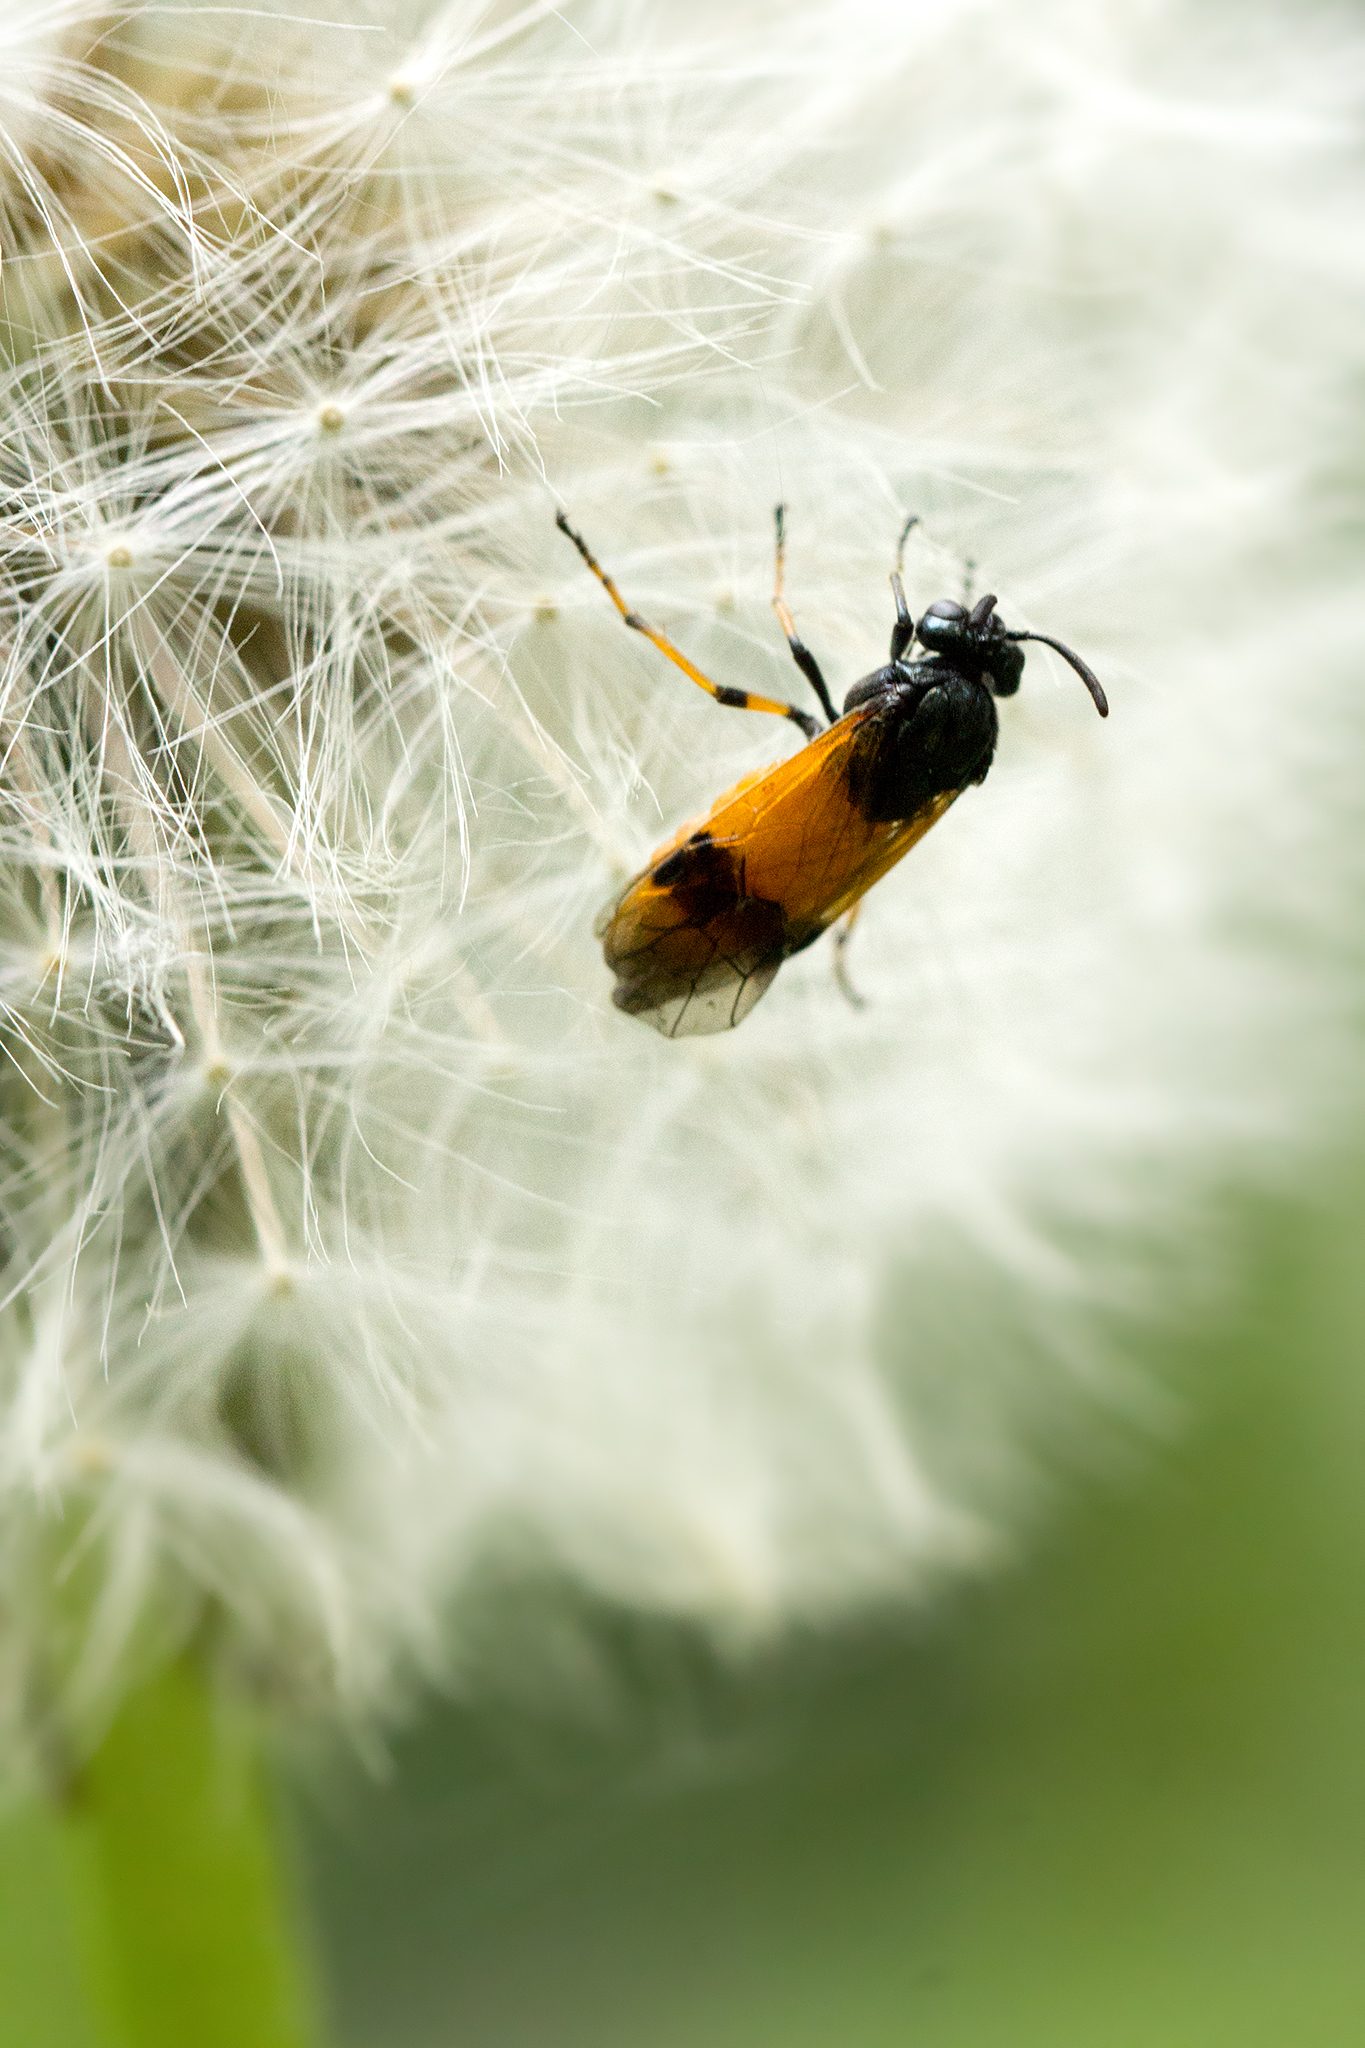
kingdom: Animalia
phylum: Arthropoda
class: Insecta
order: Hymenoptera
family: Argidae
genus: Arge
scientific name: Arge cyanocrocea
